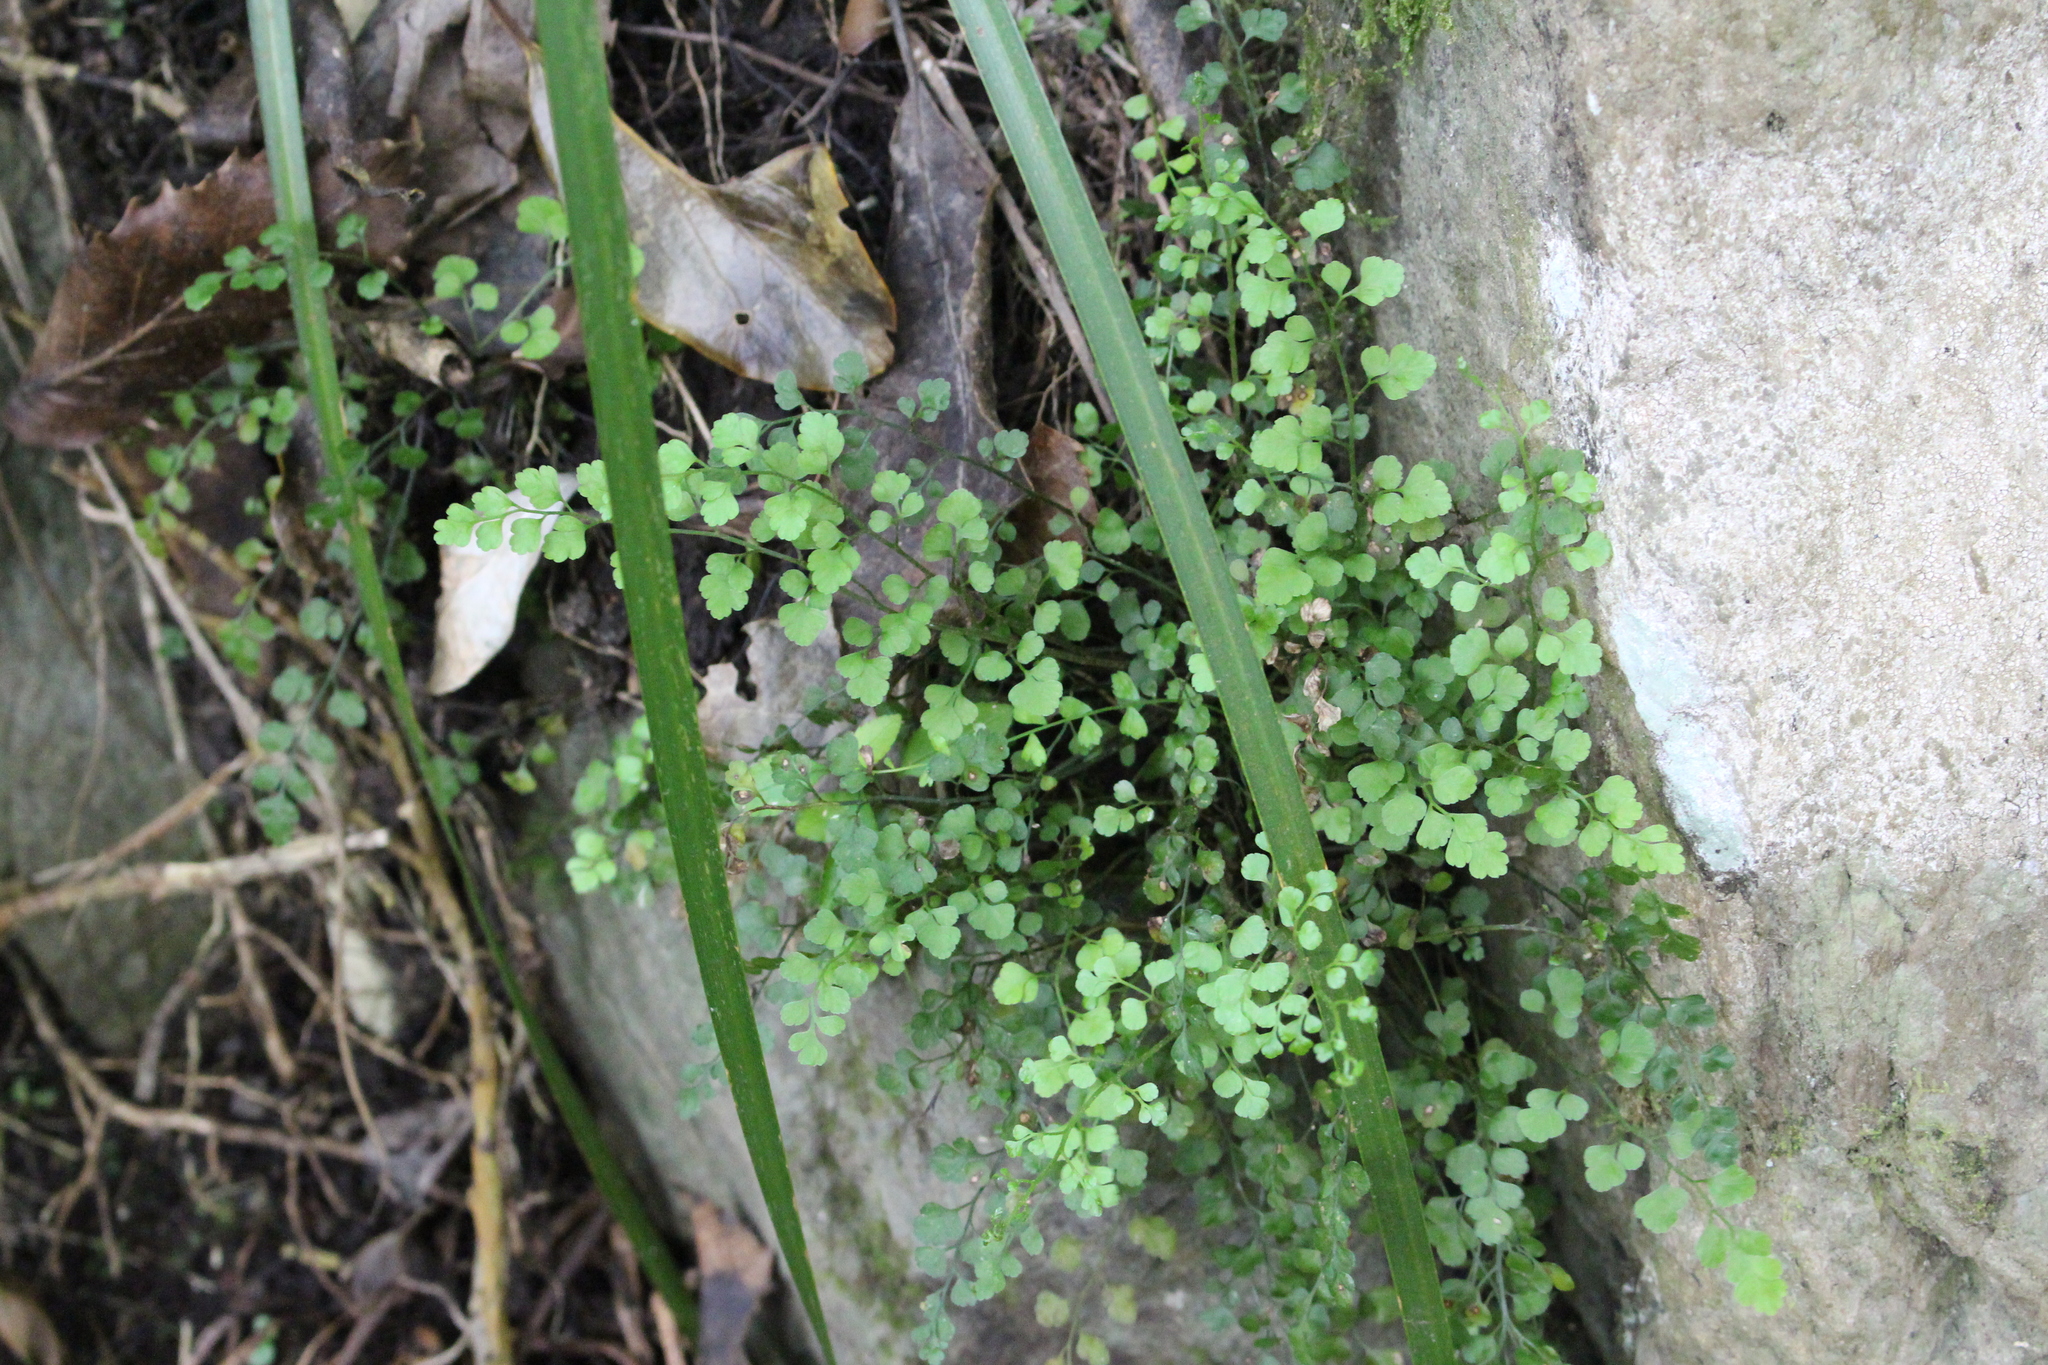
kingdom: Plantae
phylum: Tracheophyta
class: Polypodiopsida
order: Polypodiales
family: Aspleniaceae
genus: Asplenium
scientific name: Asplenium hookerianum
